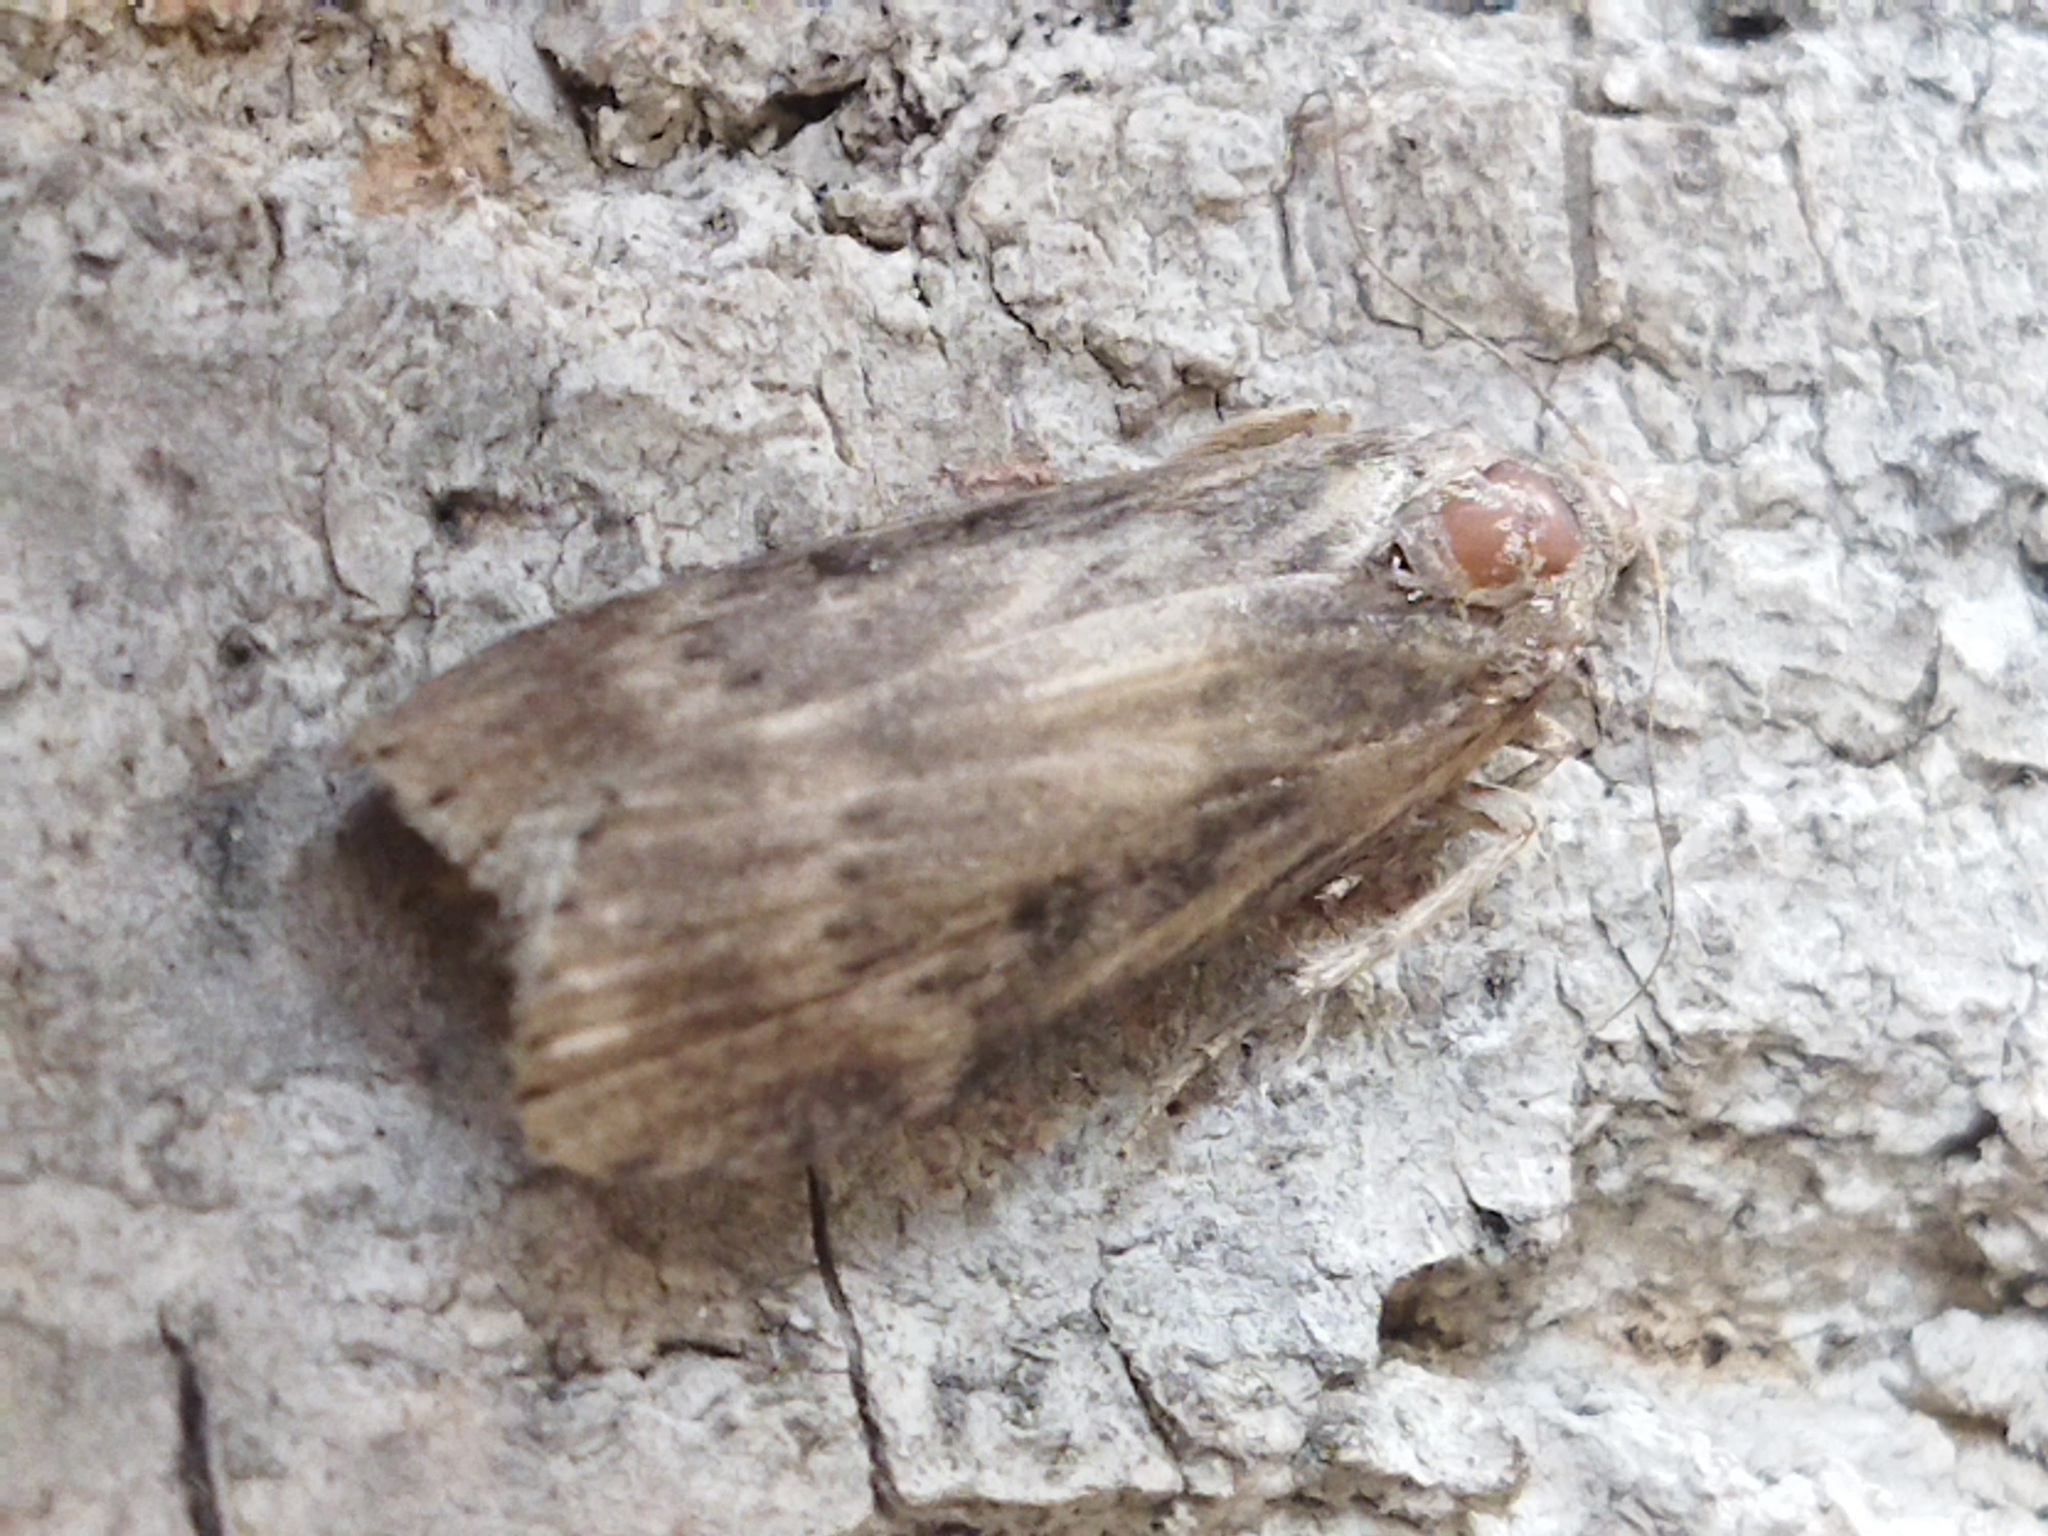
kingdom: Animalia
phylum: Arthropoda
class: Insecta
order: Lepidoptera
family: Pyralidae
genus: Lamoria
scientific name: Lamoria anella
